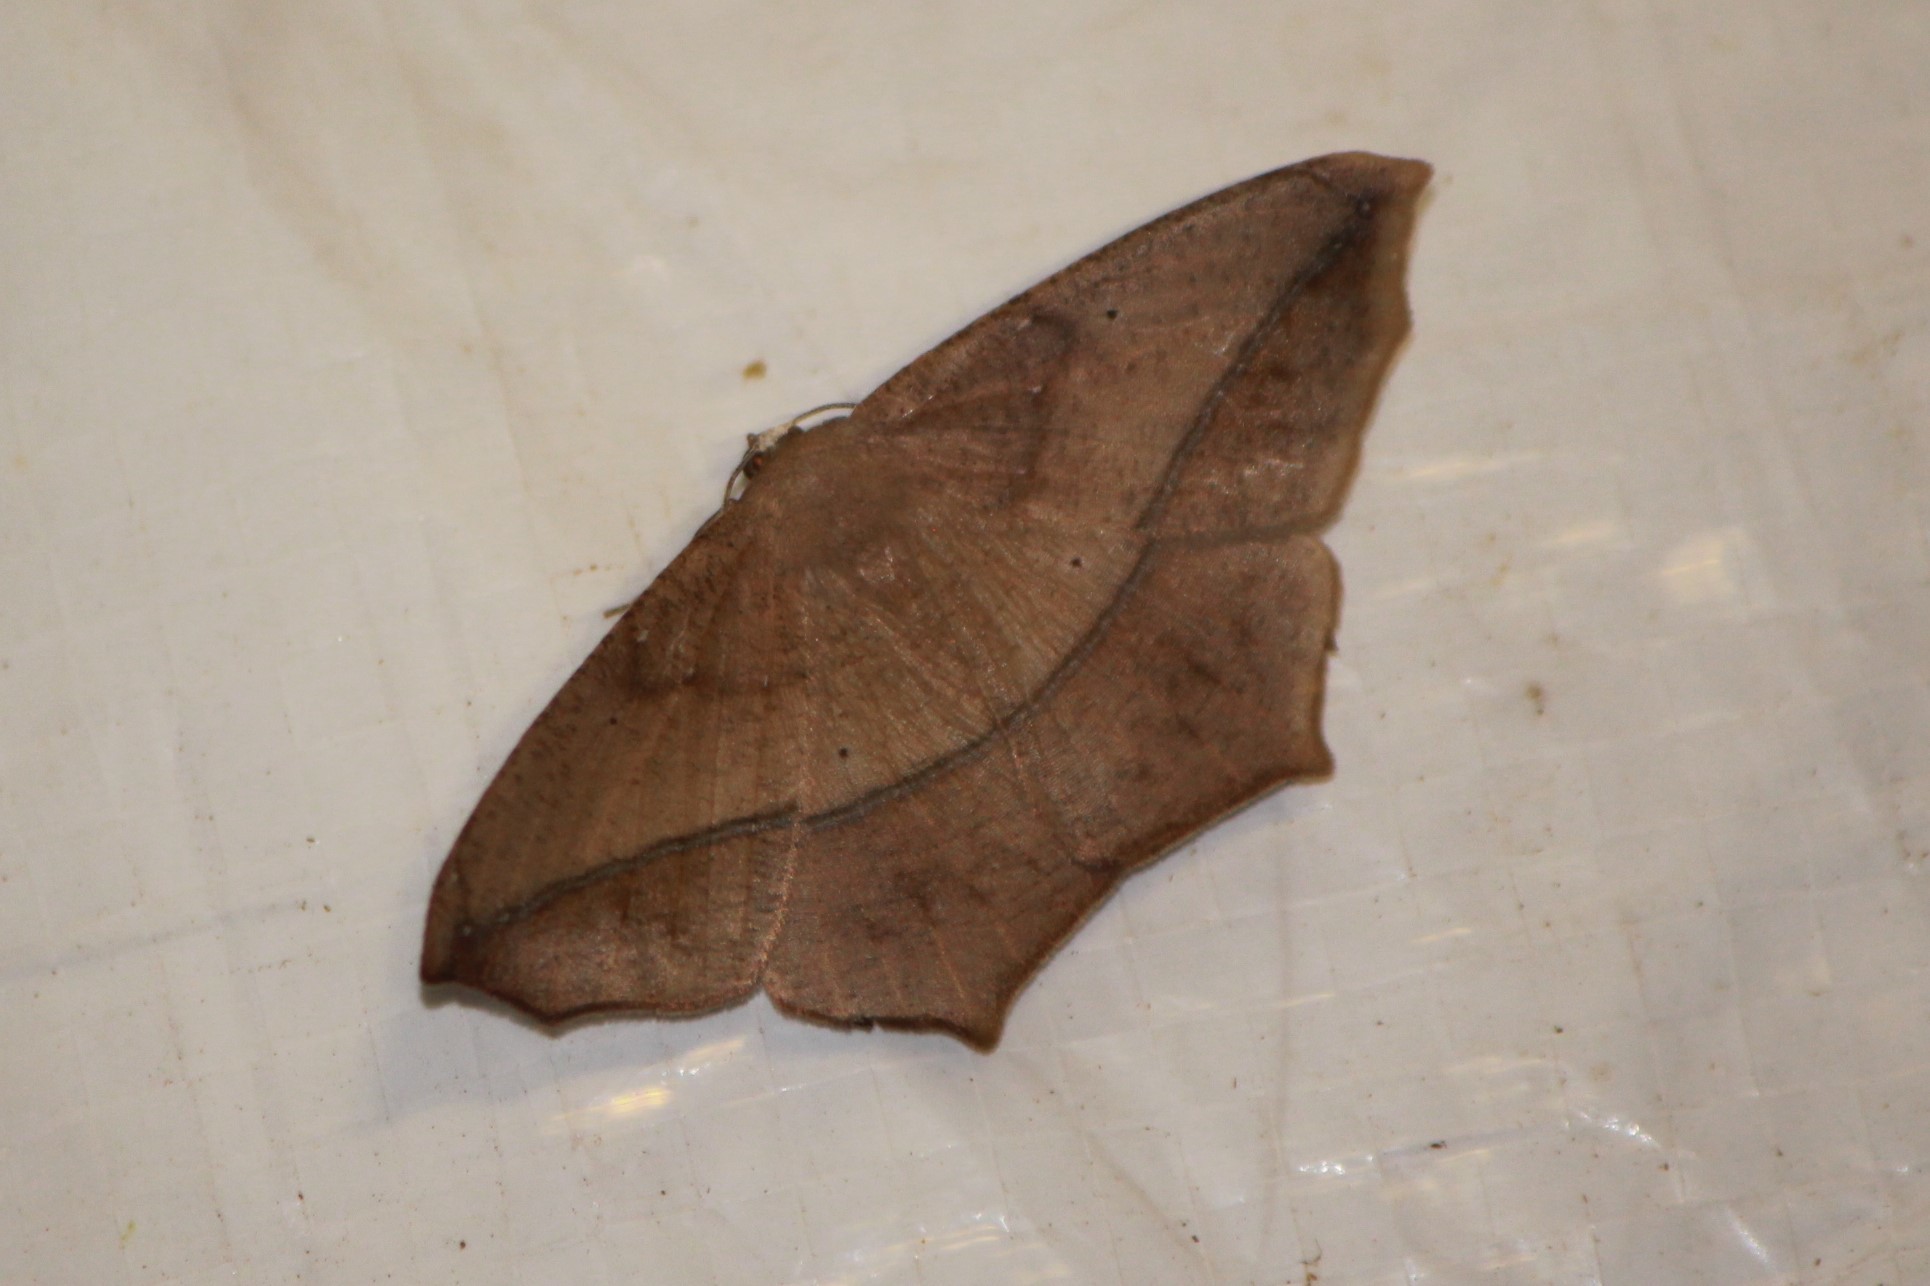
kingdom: Animalia
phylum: Arthropoda
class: Insecta
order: Lepidoptera
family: Geometridae
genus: Prochoerodes
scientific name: Prochoerodes lineola
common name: Large maple spanworm
